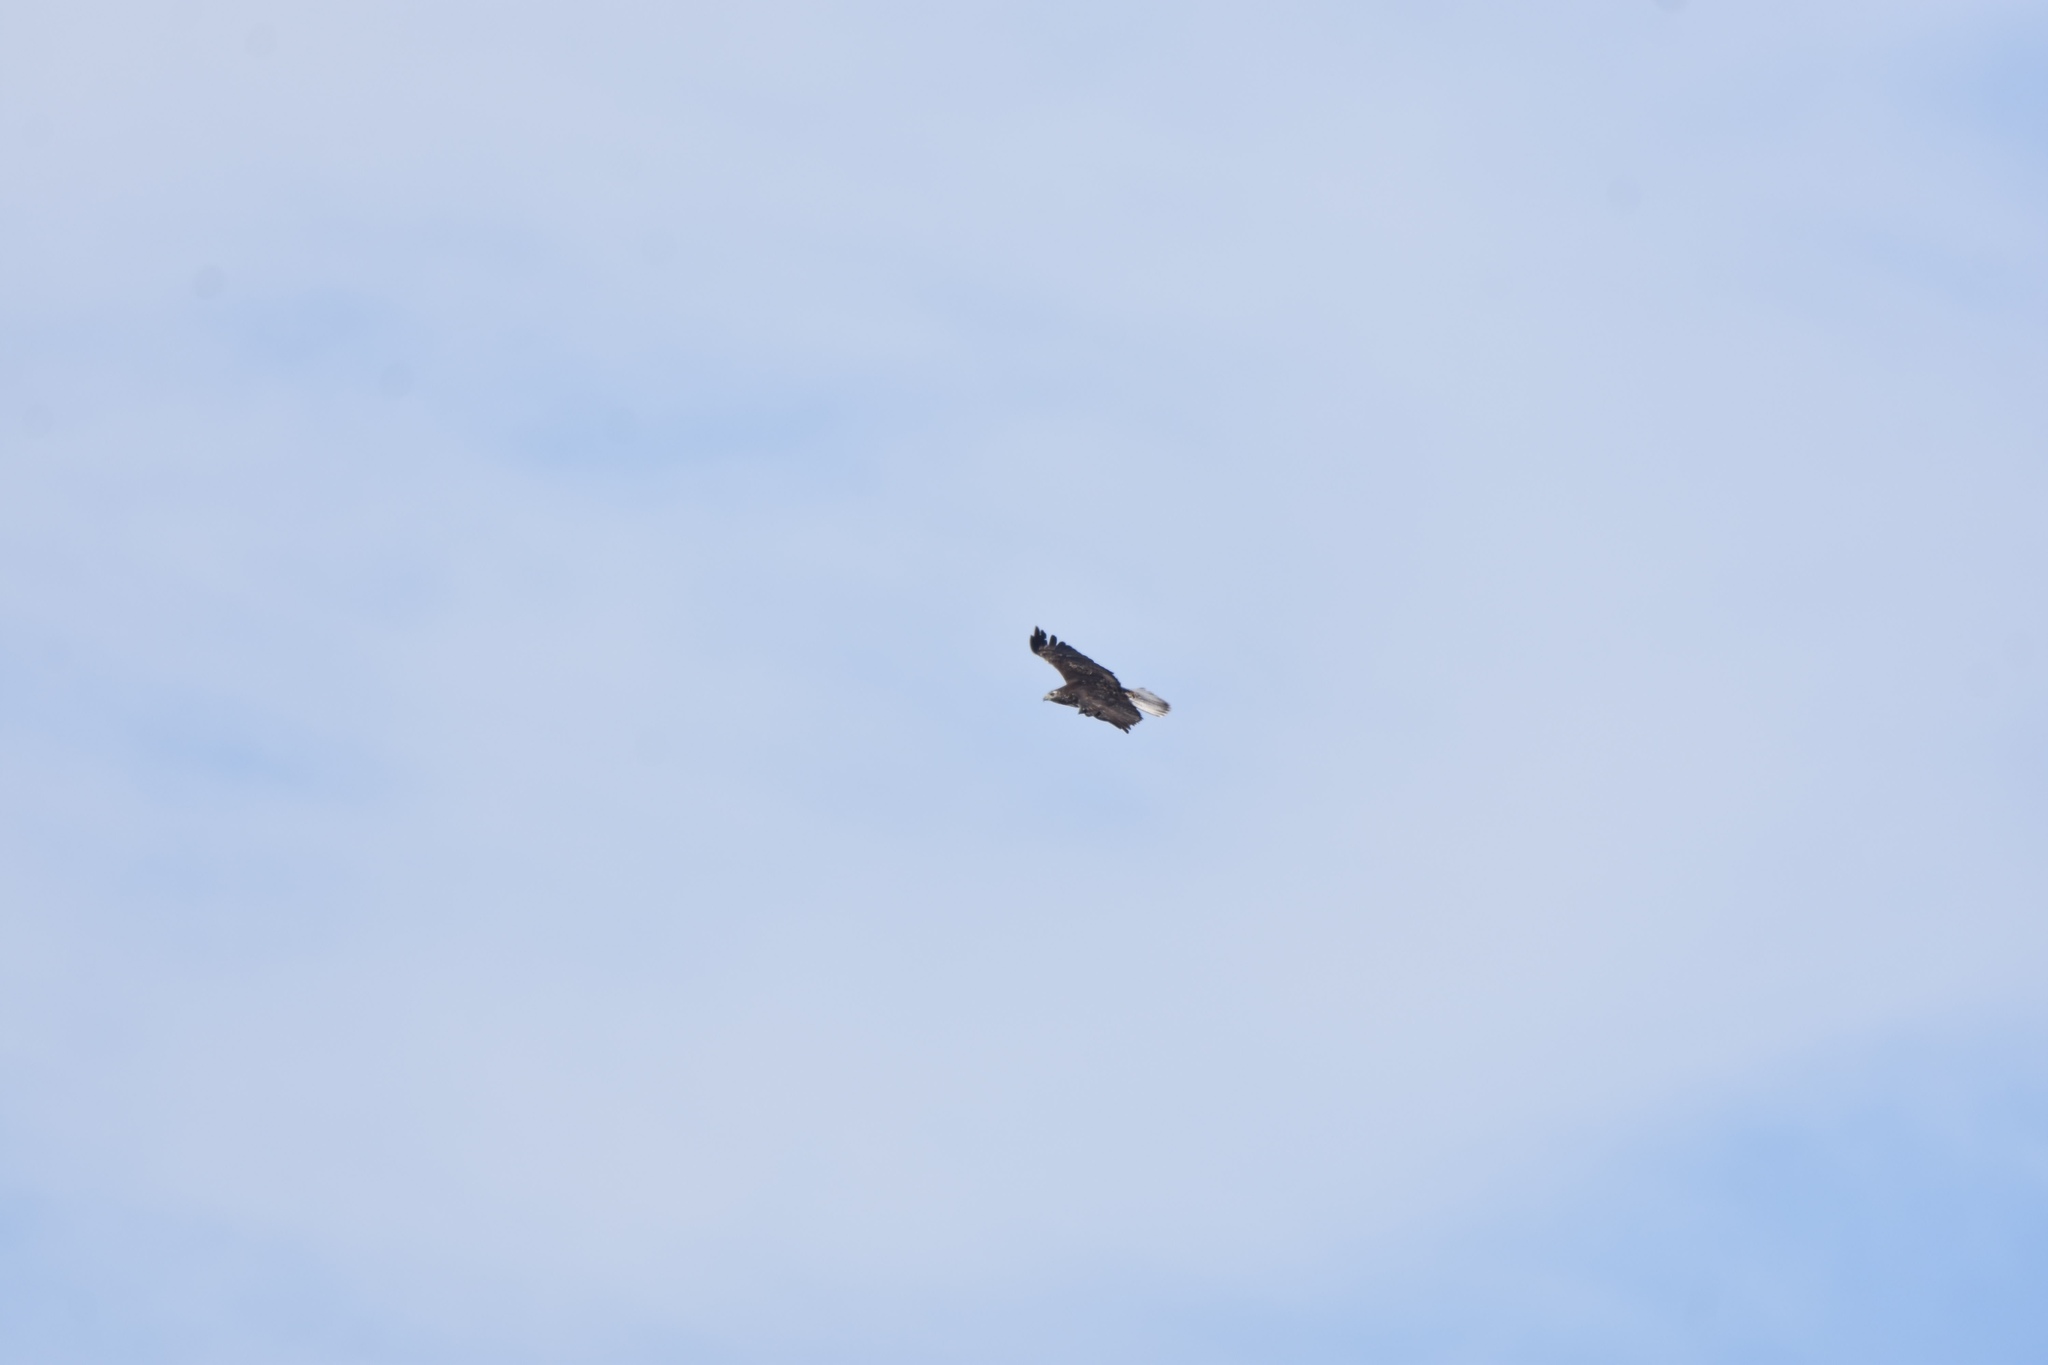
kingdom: Animalia
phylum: Chordata
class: Aves
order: Accipitriformes
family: Accipitridae
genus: Buteo
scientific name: Buteo jamaicensis
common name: Red-tailed hawk
